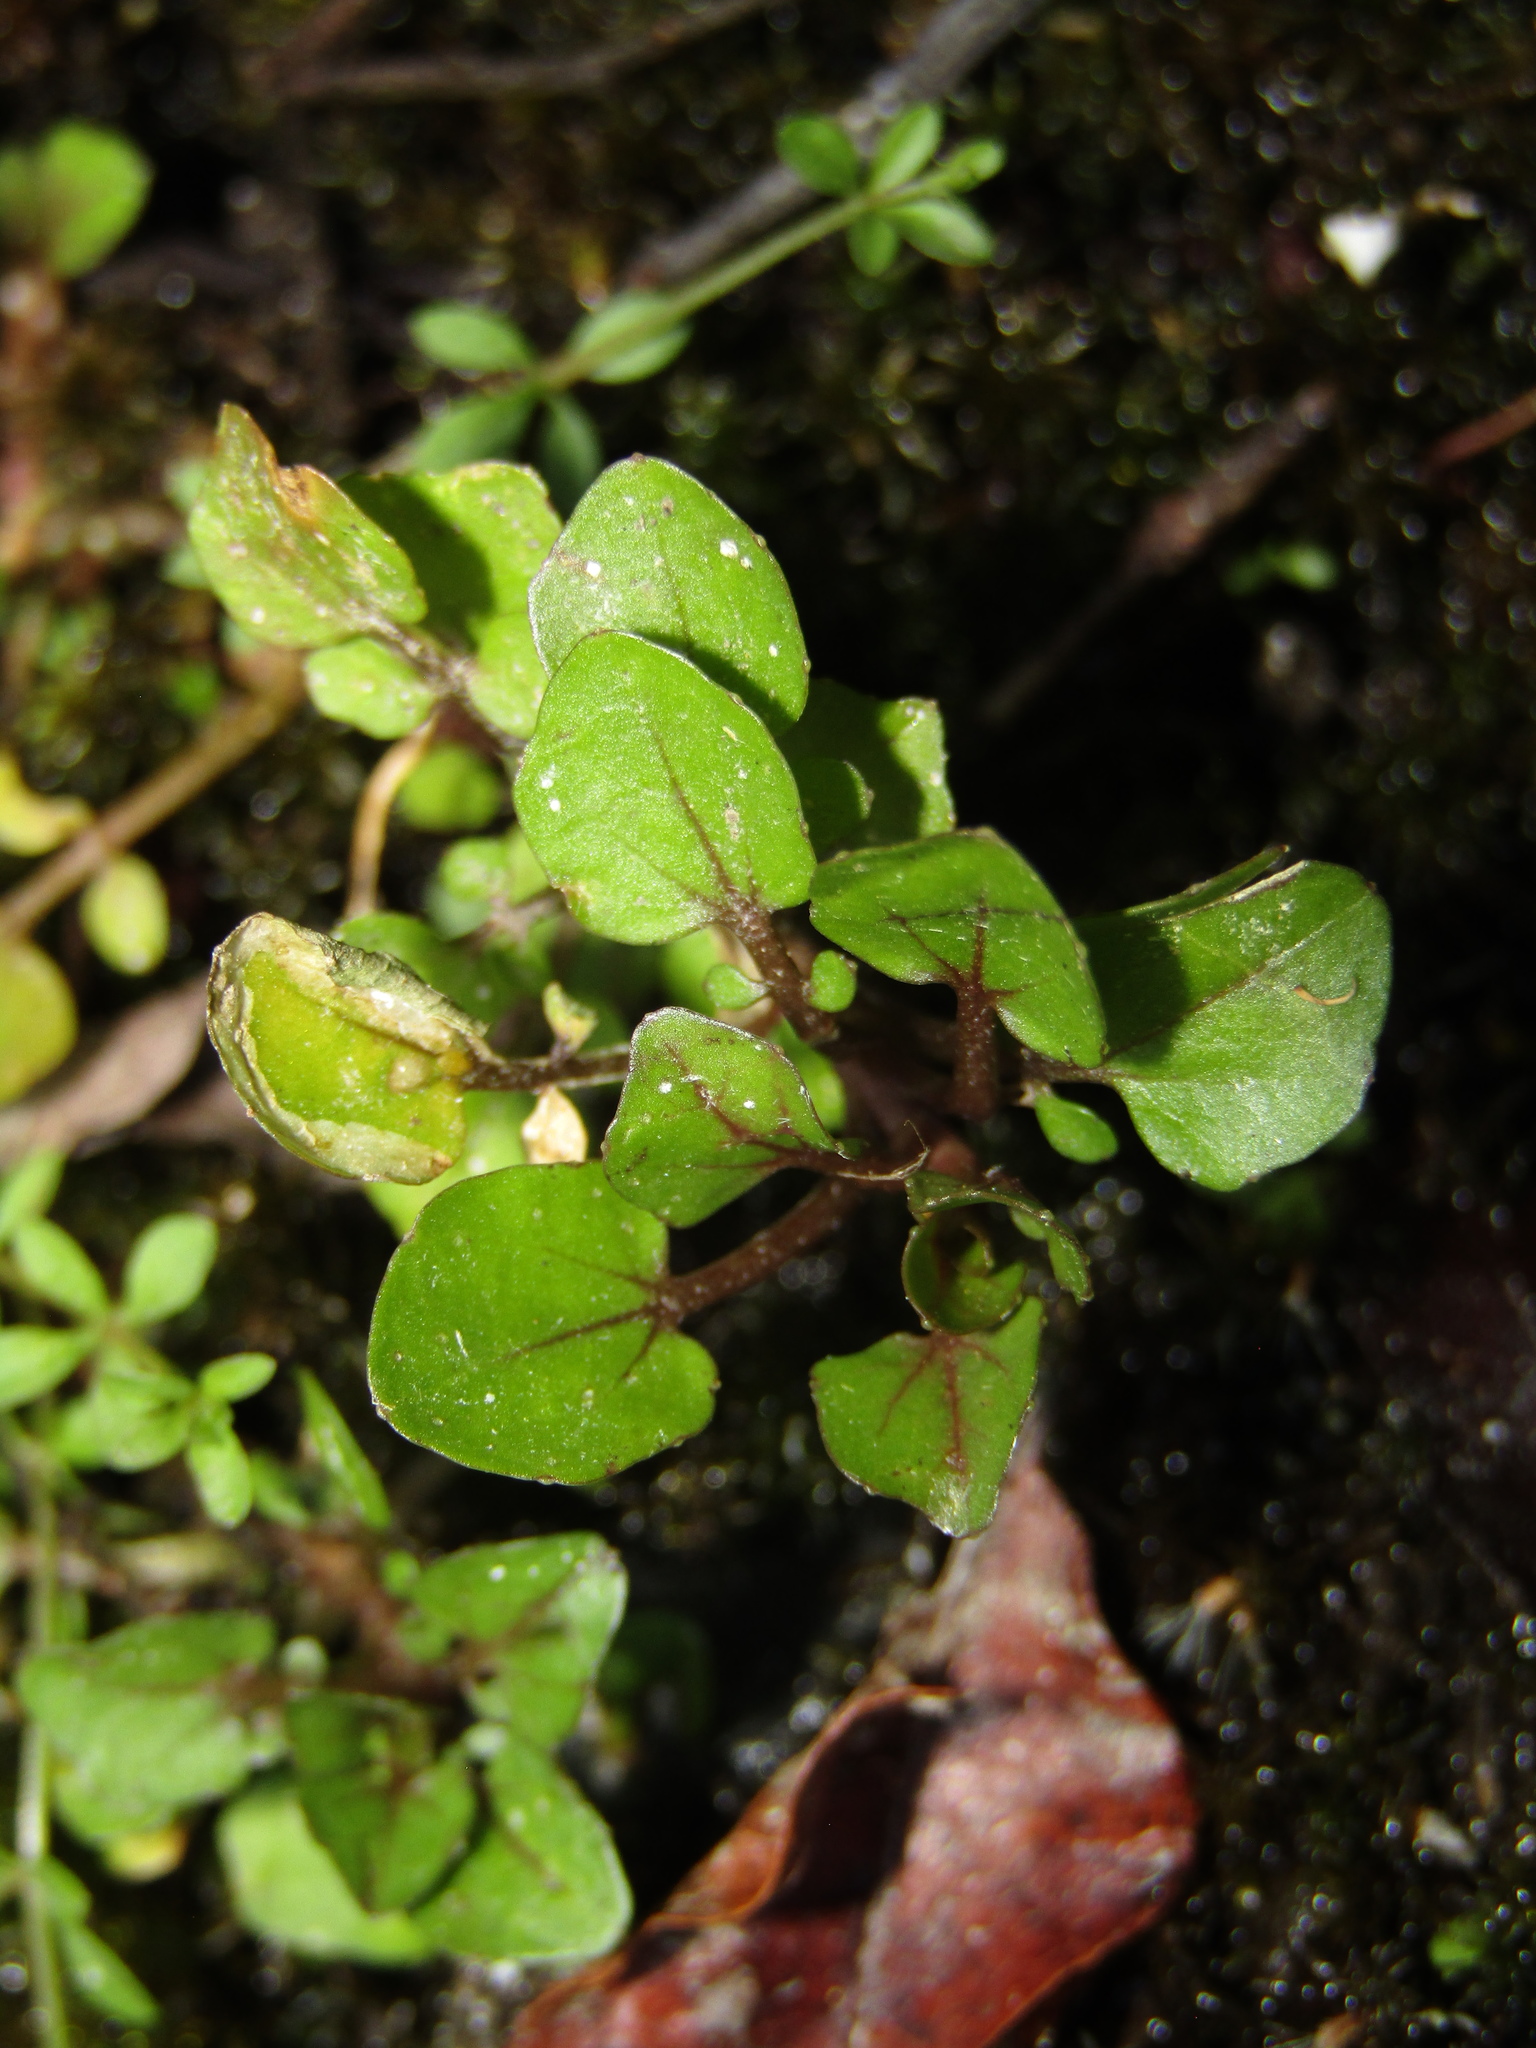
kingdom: Plantae
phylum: Tracheophyta
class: Magnoliopsida
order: Brassicales
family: Brassicaceae
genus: Nasturtium
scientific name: Nasturtium officinale
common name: Watercress
